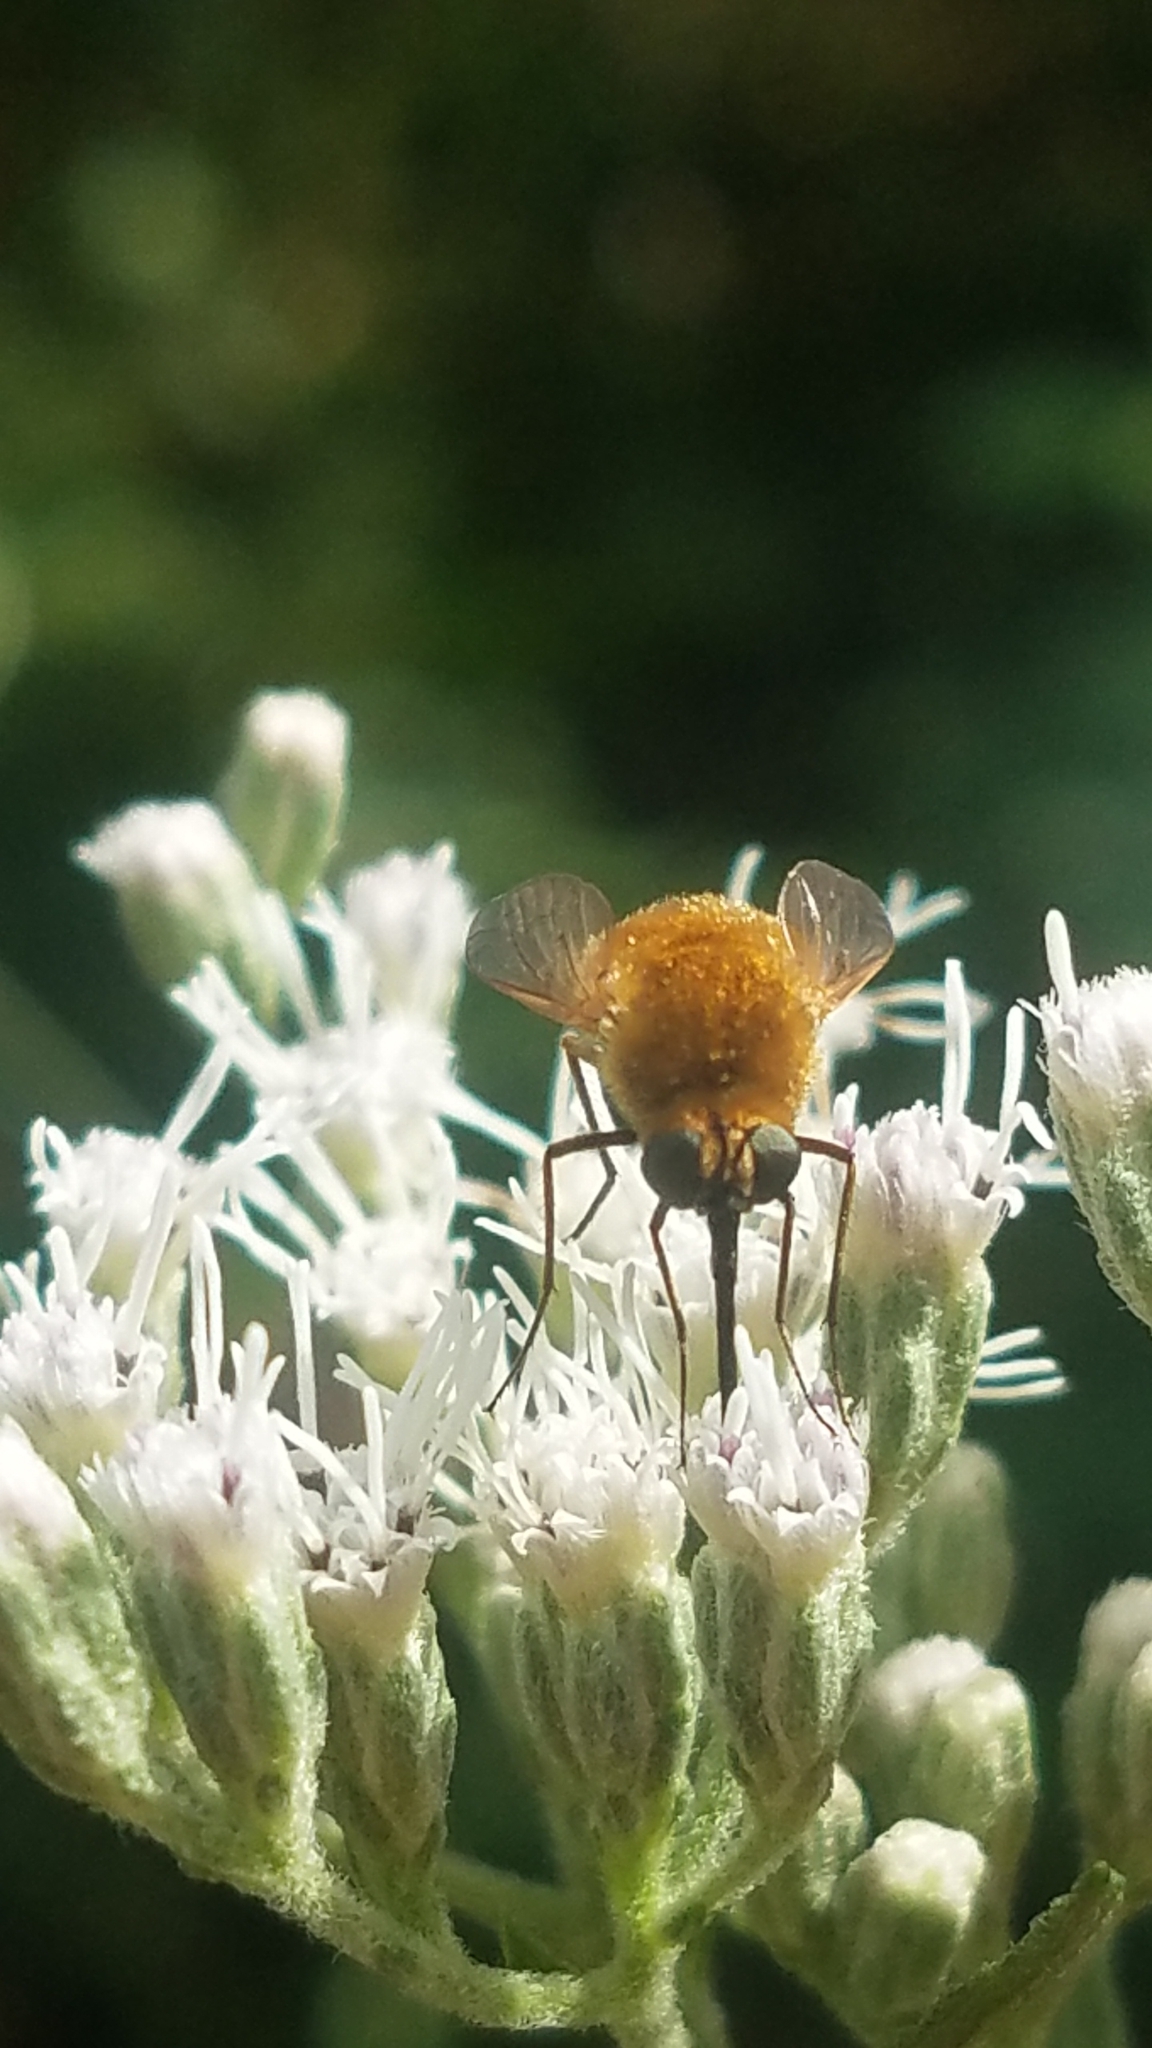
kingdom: Animalia
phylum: Arthropoda
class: Insecta
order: Diptera
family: Bombyliidae
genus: Sparnopolius
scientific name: Sparnopolius confusus
